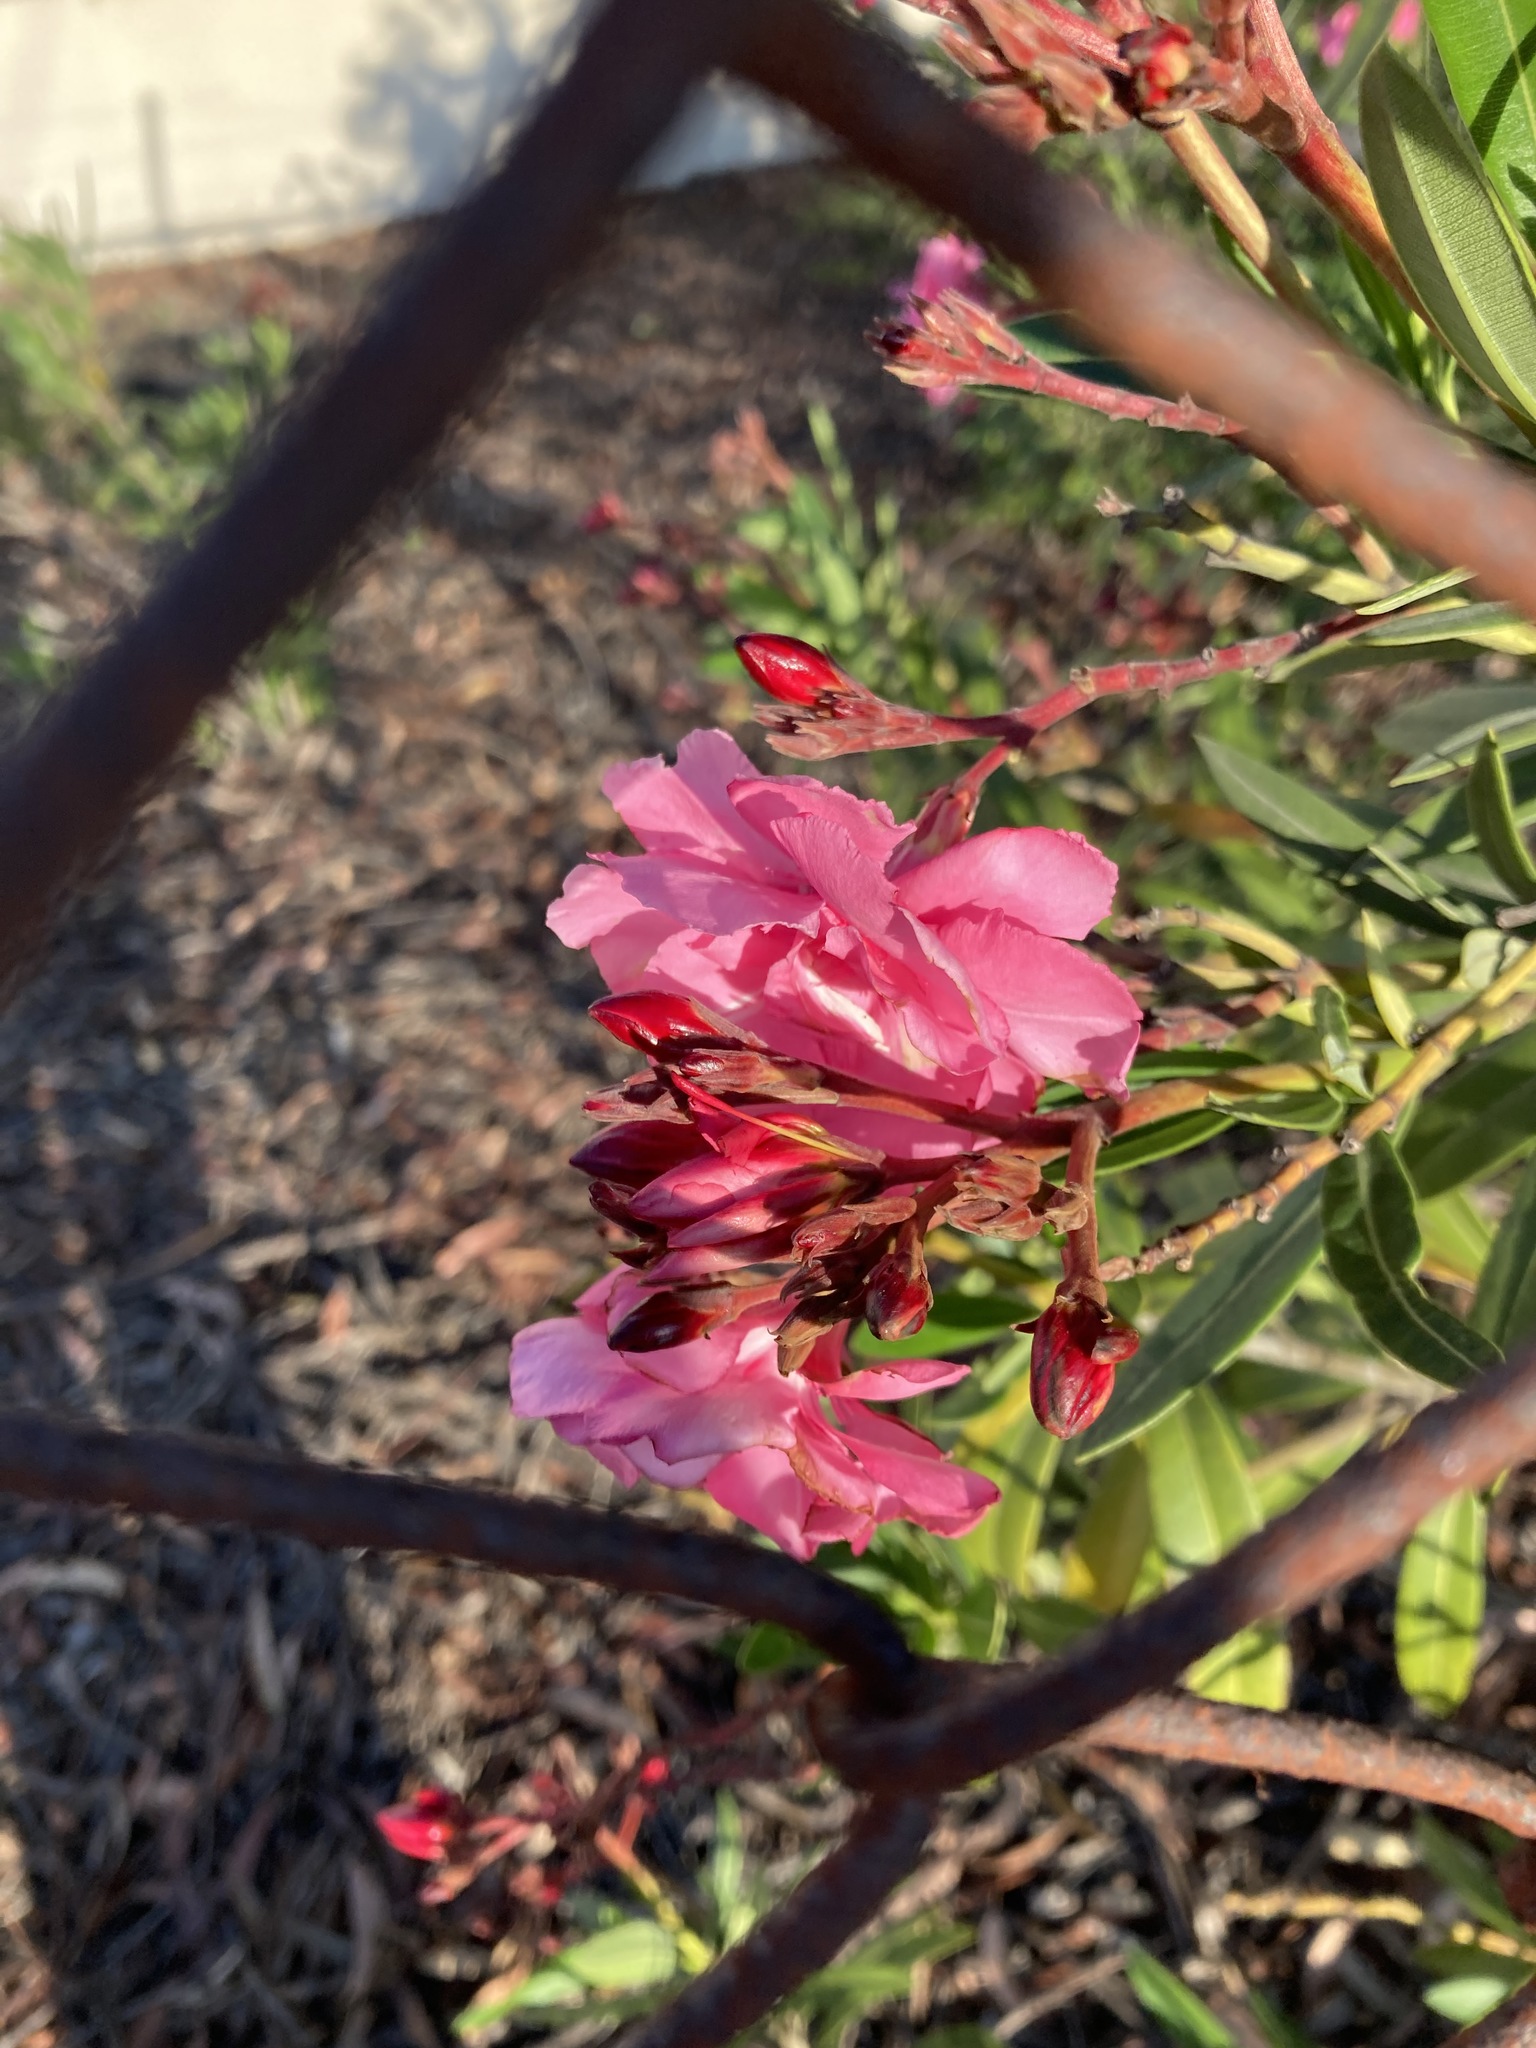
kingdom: Plantae
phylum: Tracheophyta
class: Magnoliopsida
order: Gentianales
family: Apocynaceae
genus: Nerium
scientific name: Nerium oleander
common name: Oleander
